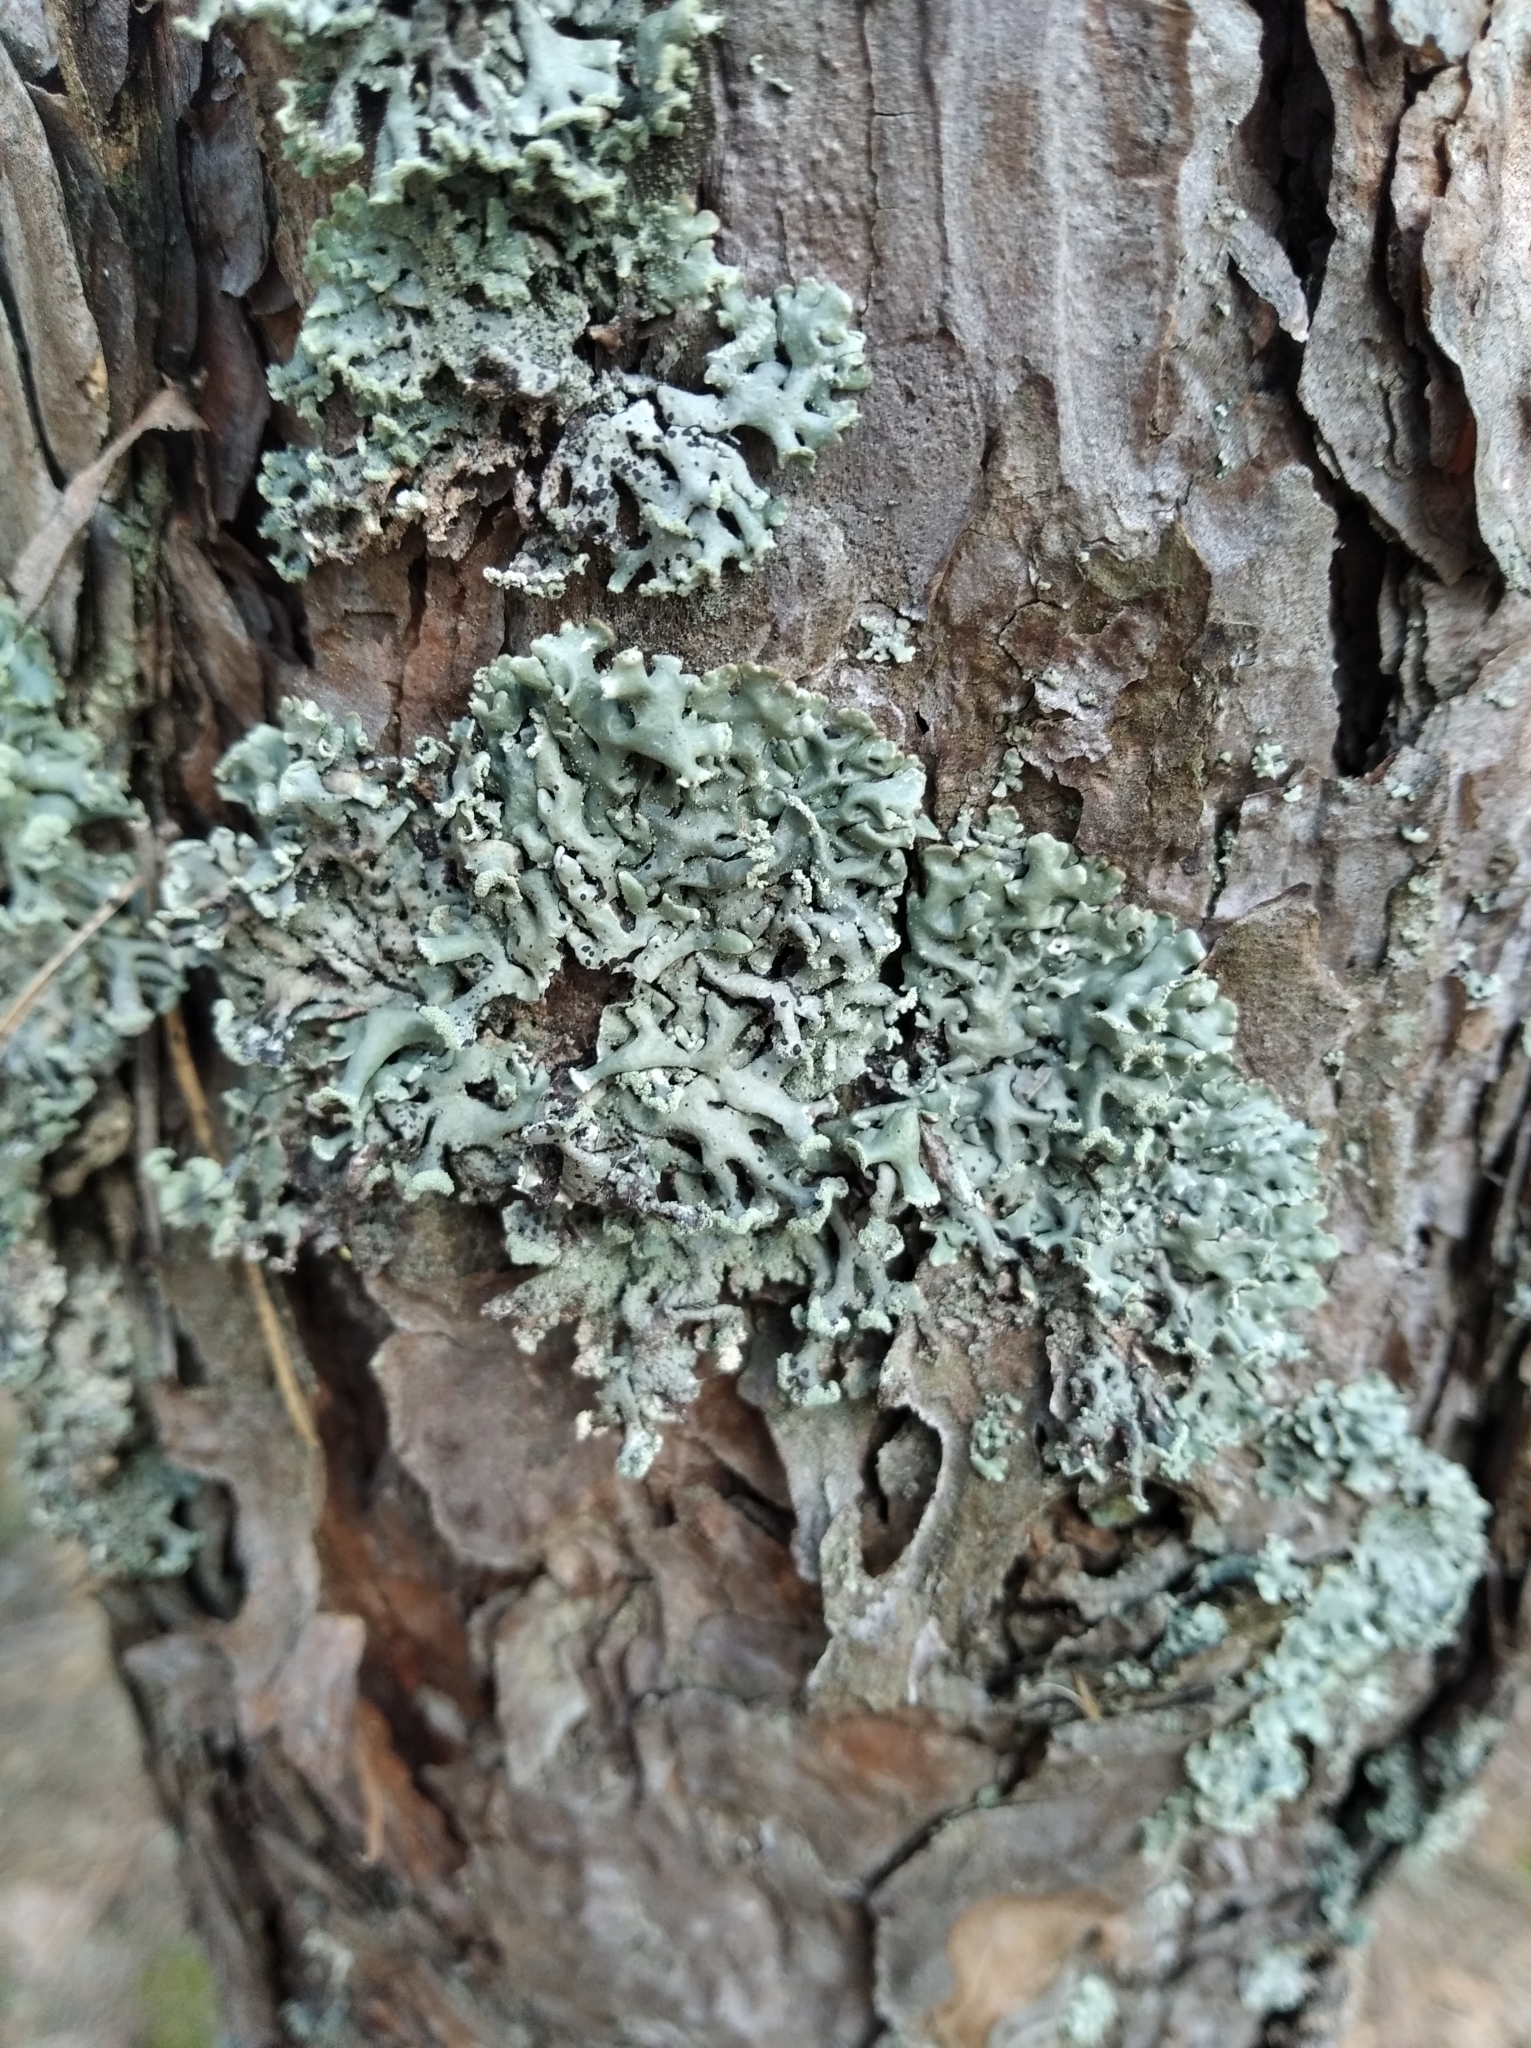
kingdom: Fungi
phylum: Ascomycota
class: Lecanoromycetes
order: Lecanorales
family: Parmeliaceae
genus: Hypogymnia
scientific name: Hypogymnia physodes
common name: Dark crottle
